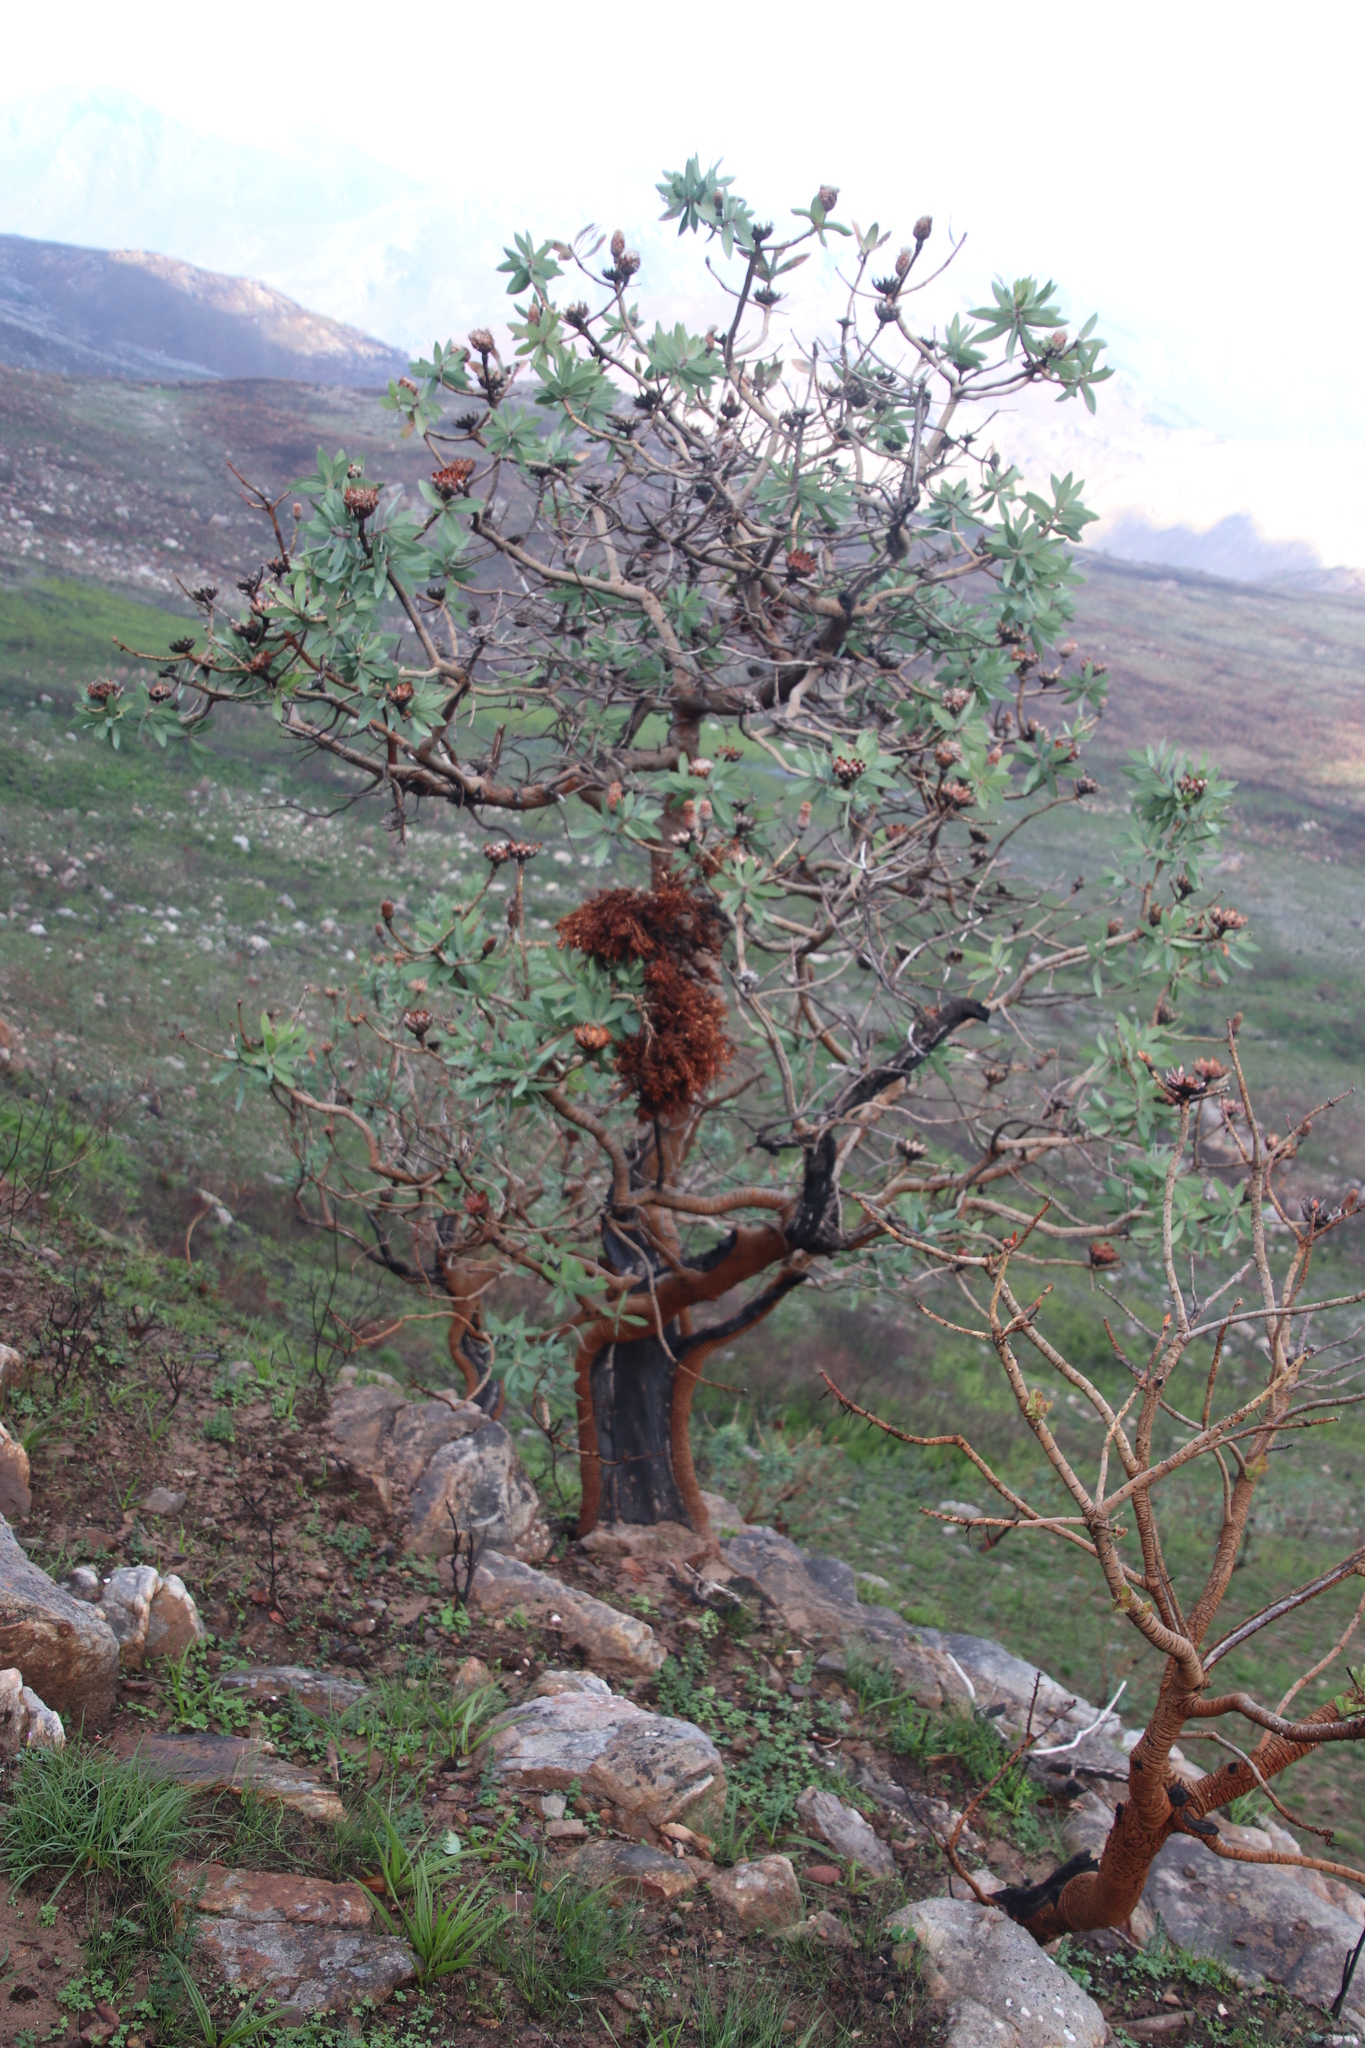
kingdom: Plantae
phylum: Tracheophyta
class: Magnoliopsida
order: Proteales
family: Proteaceae
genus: Protea
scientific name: Protea nitida
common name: Tree protea
